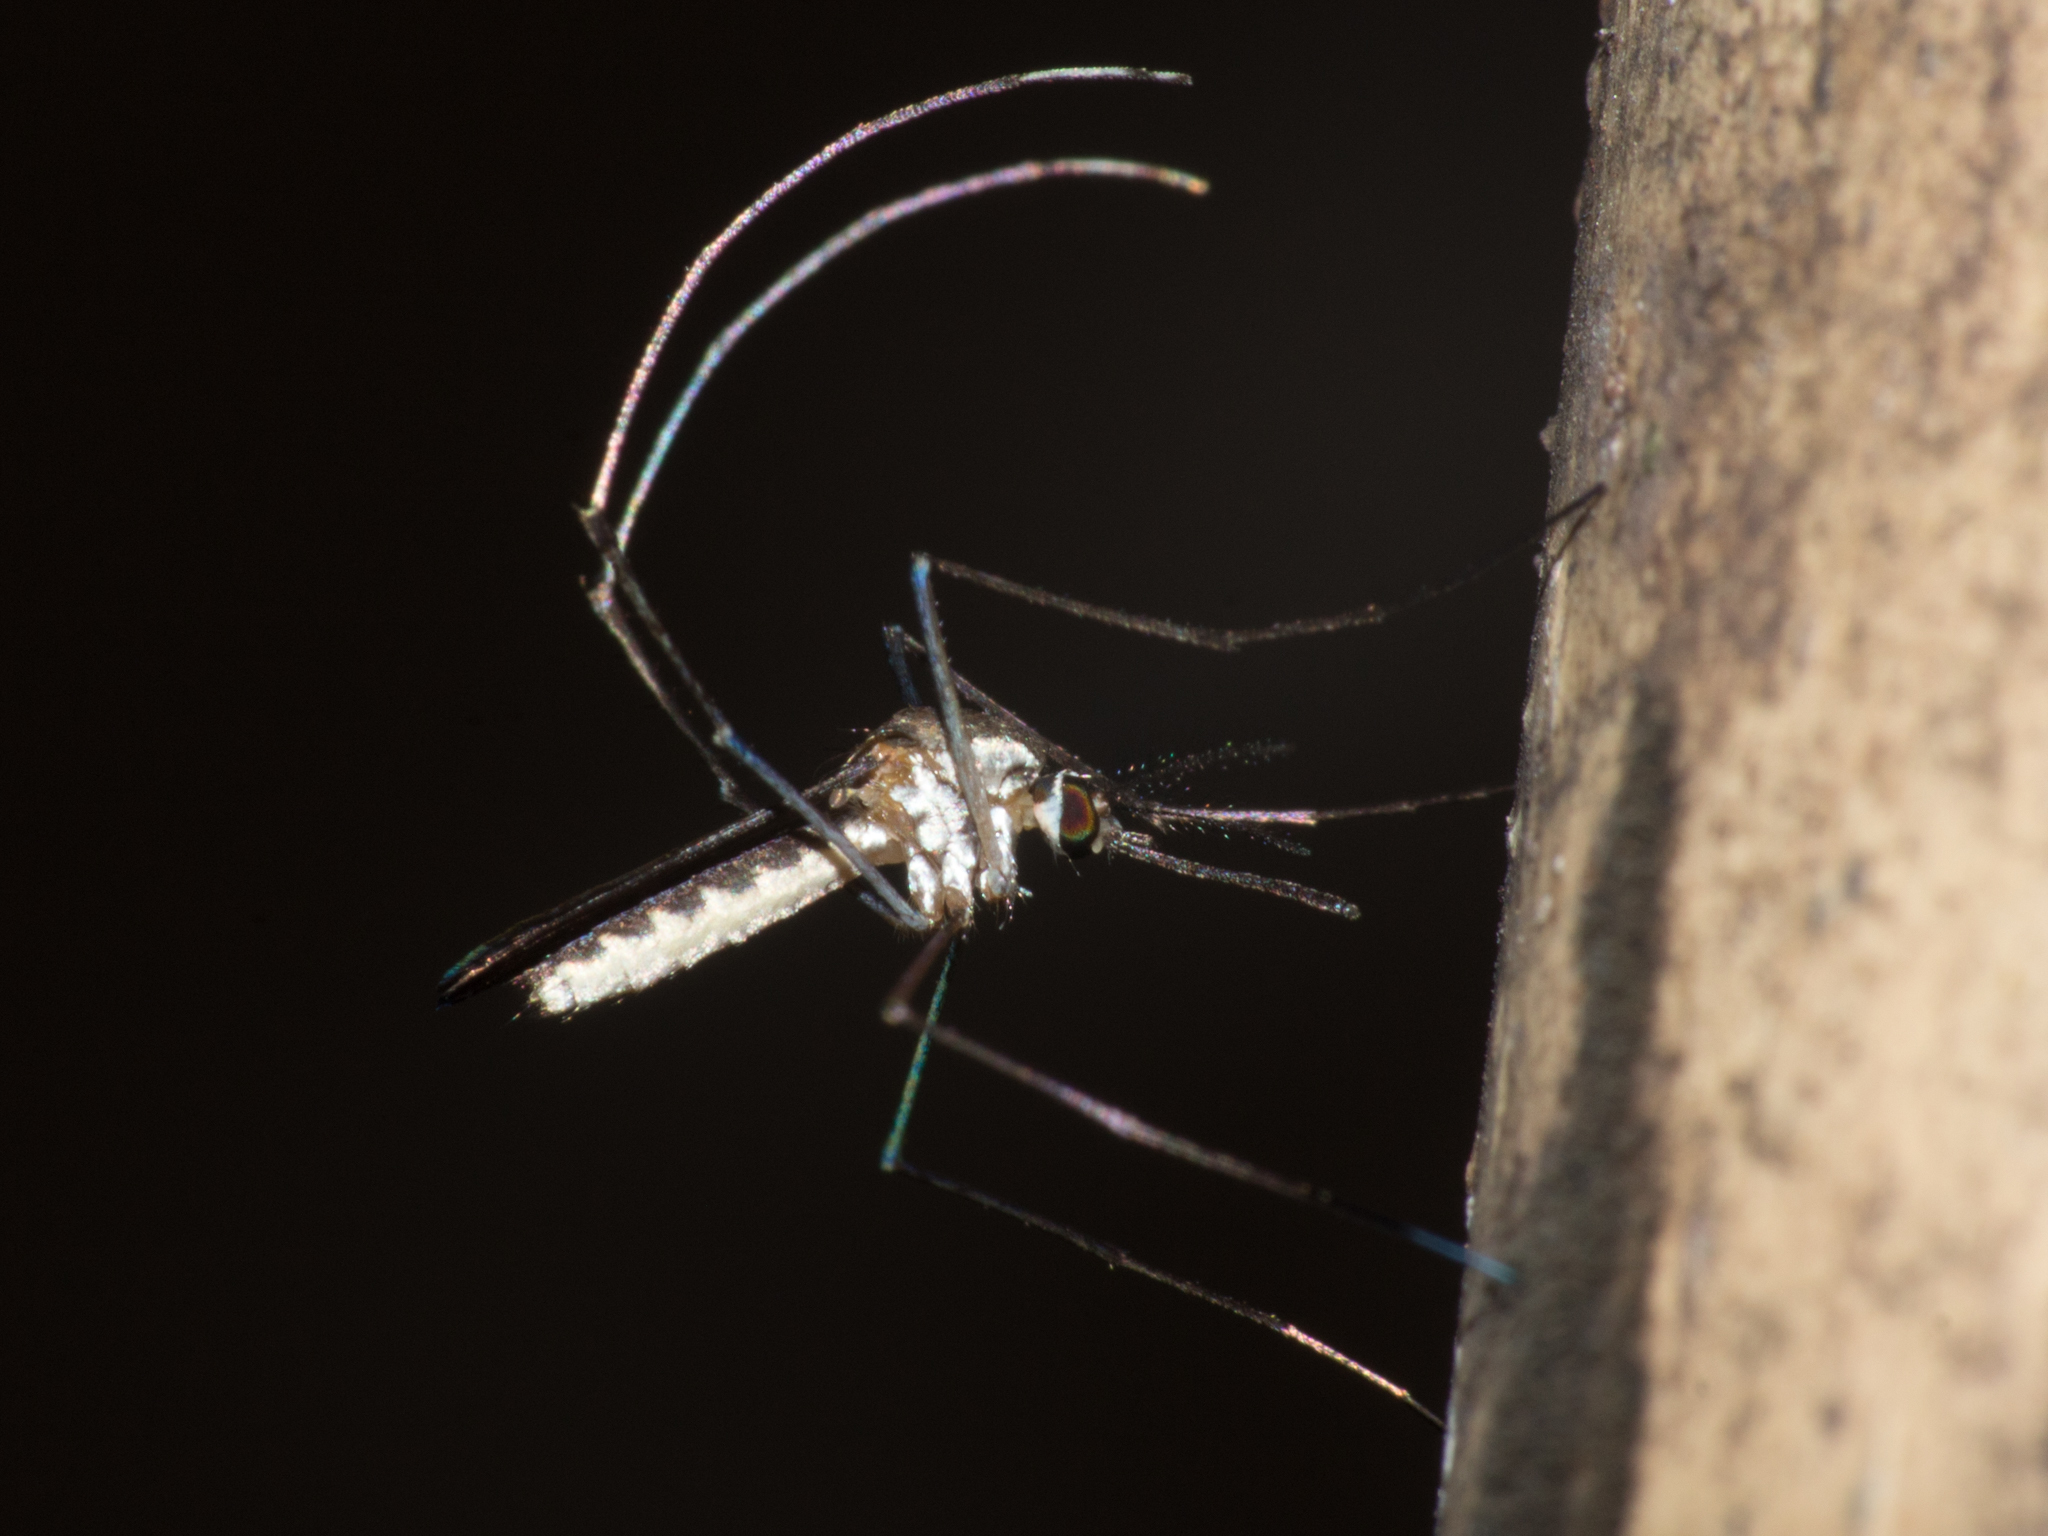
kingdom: Animalia
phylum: Arthropoda
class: Insecta
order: Diptera
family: Culicidae
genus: Wyeomyia
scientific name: Wyeomyia lutzi
